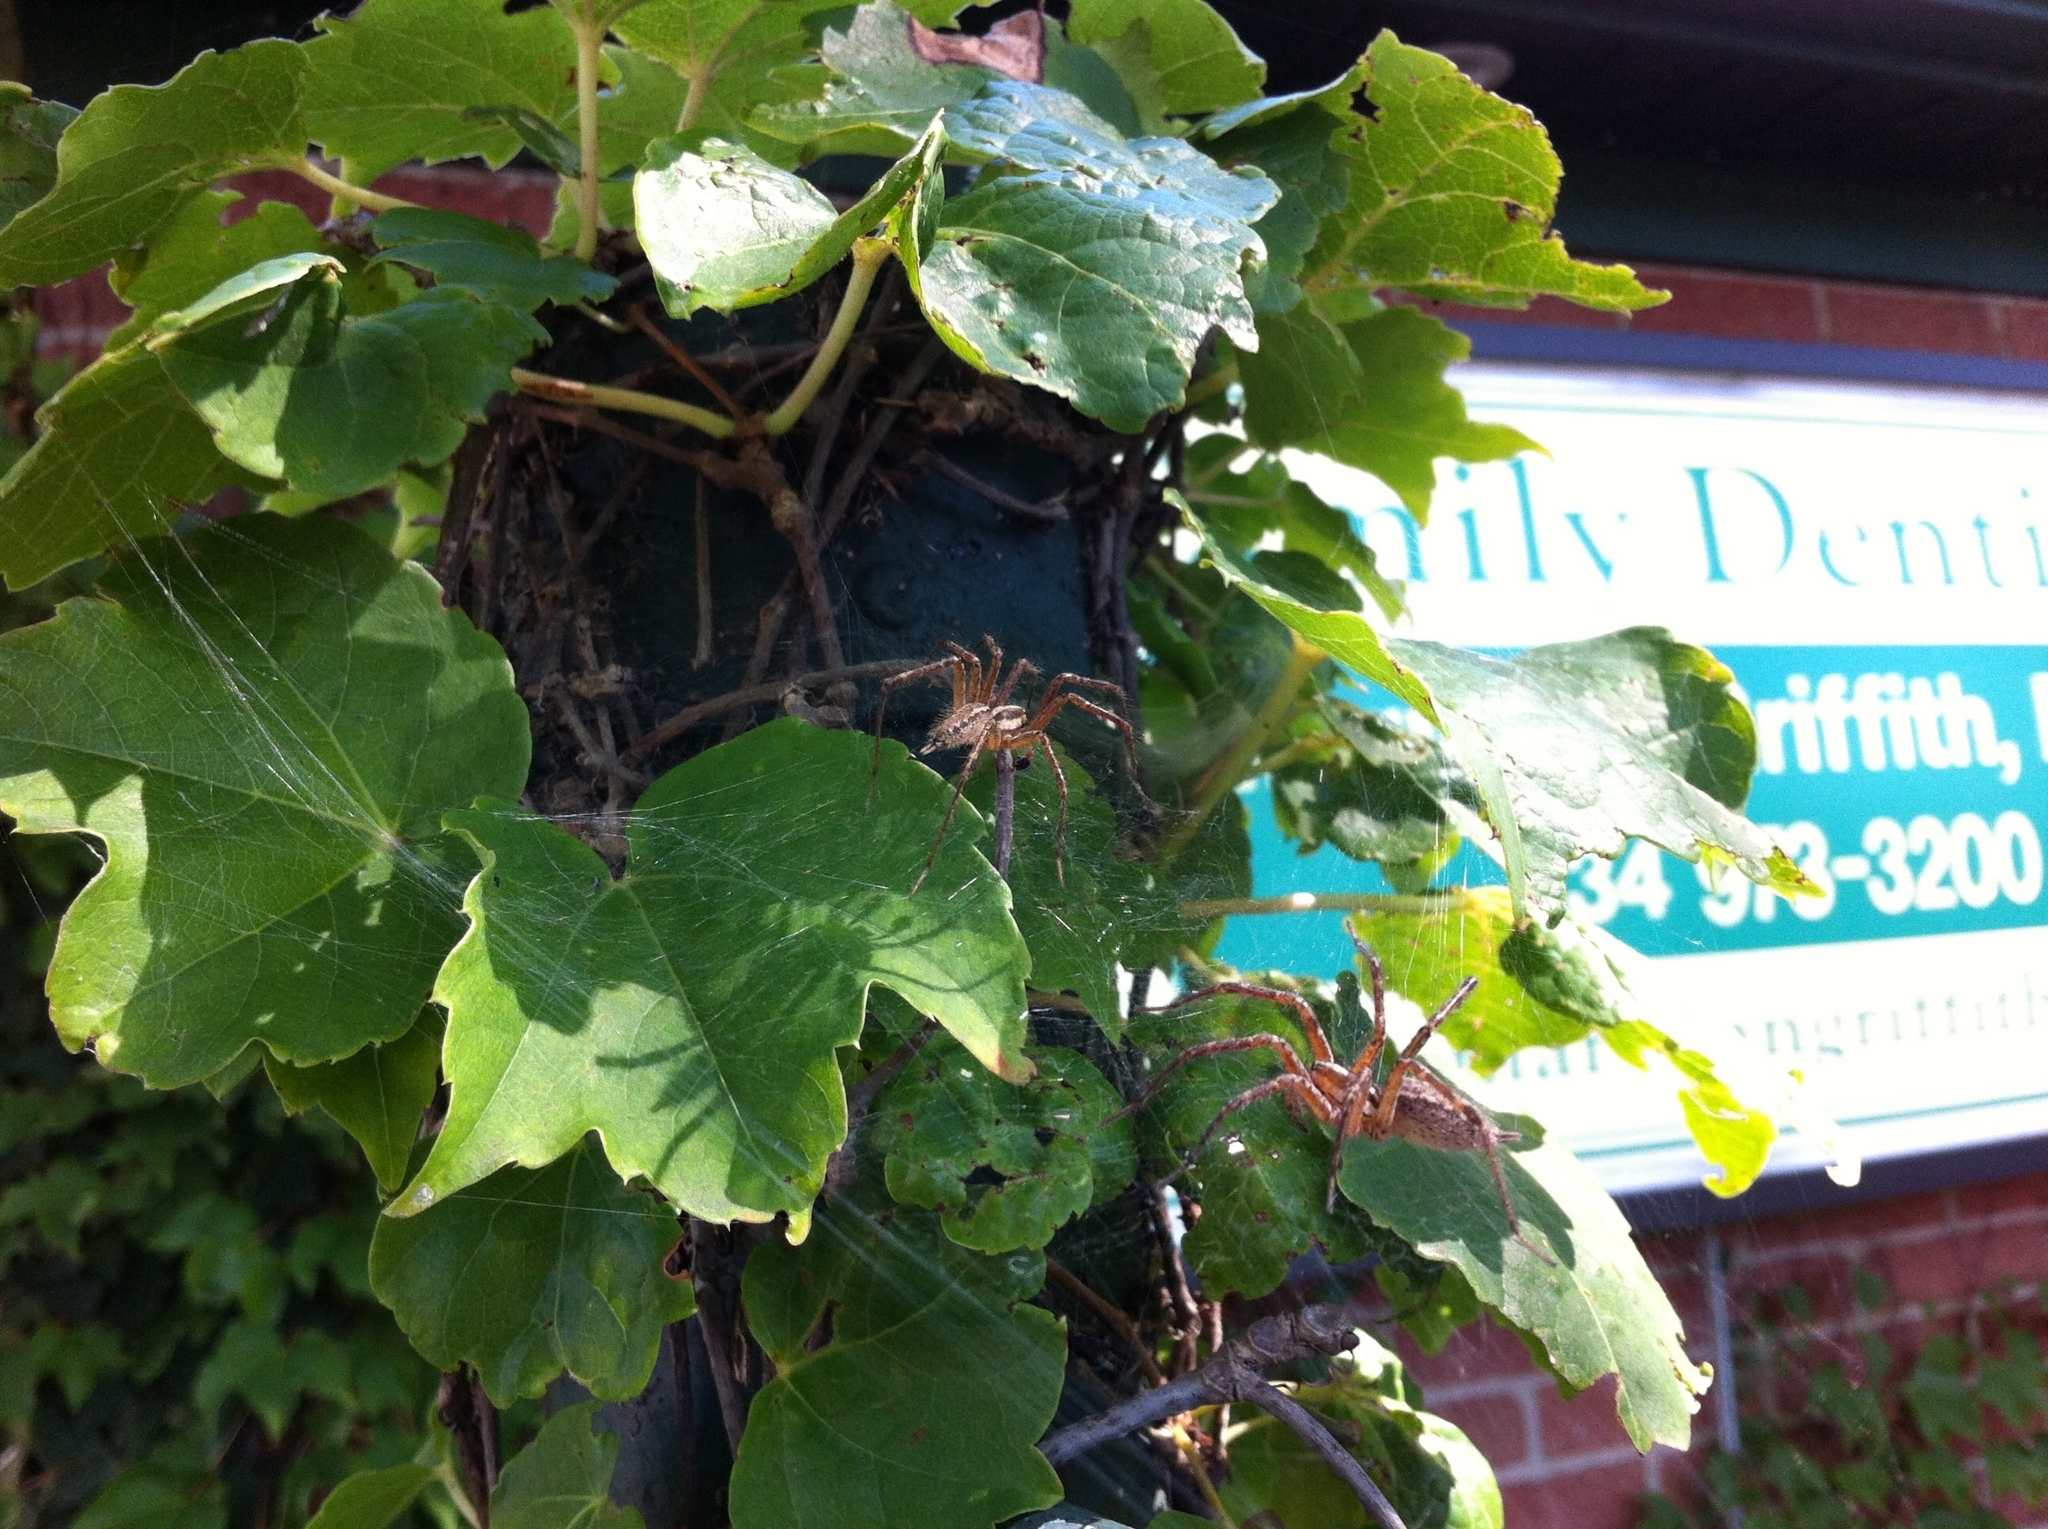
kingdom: Animalia
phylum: Arthropoda
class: Arachnida
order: Araneae
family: Agelenidae
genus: Agelenopsis
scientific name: Agelenopsis
